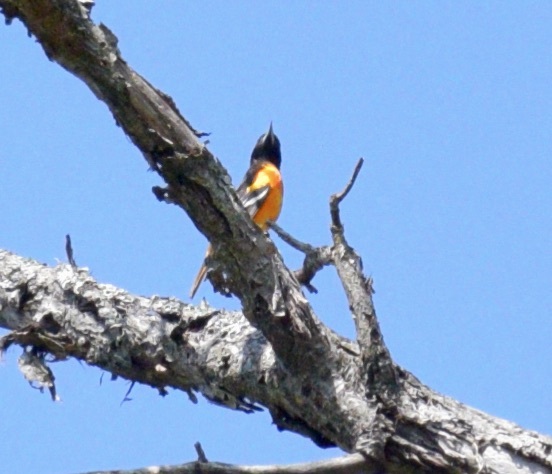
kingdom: Animalia
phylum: Chordata
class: Aves
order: Passeriformes
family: Icteridae
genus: Icterus
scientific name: Icterus galbula
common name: Baltimore oriole
